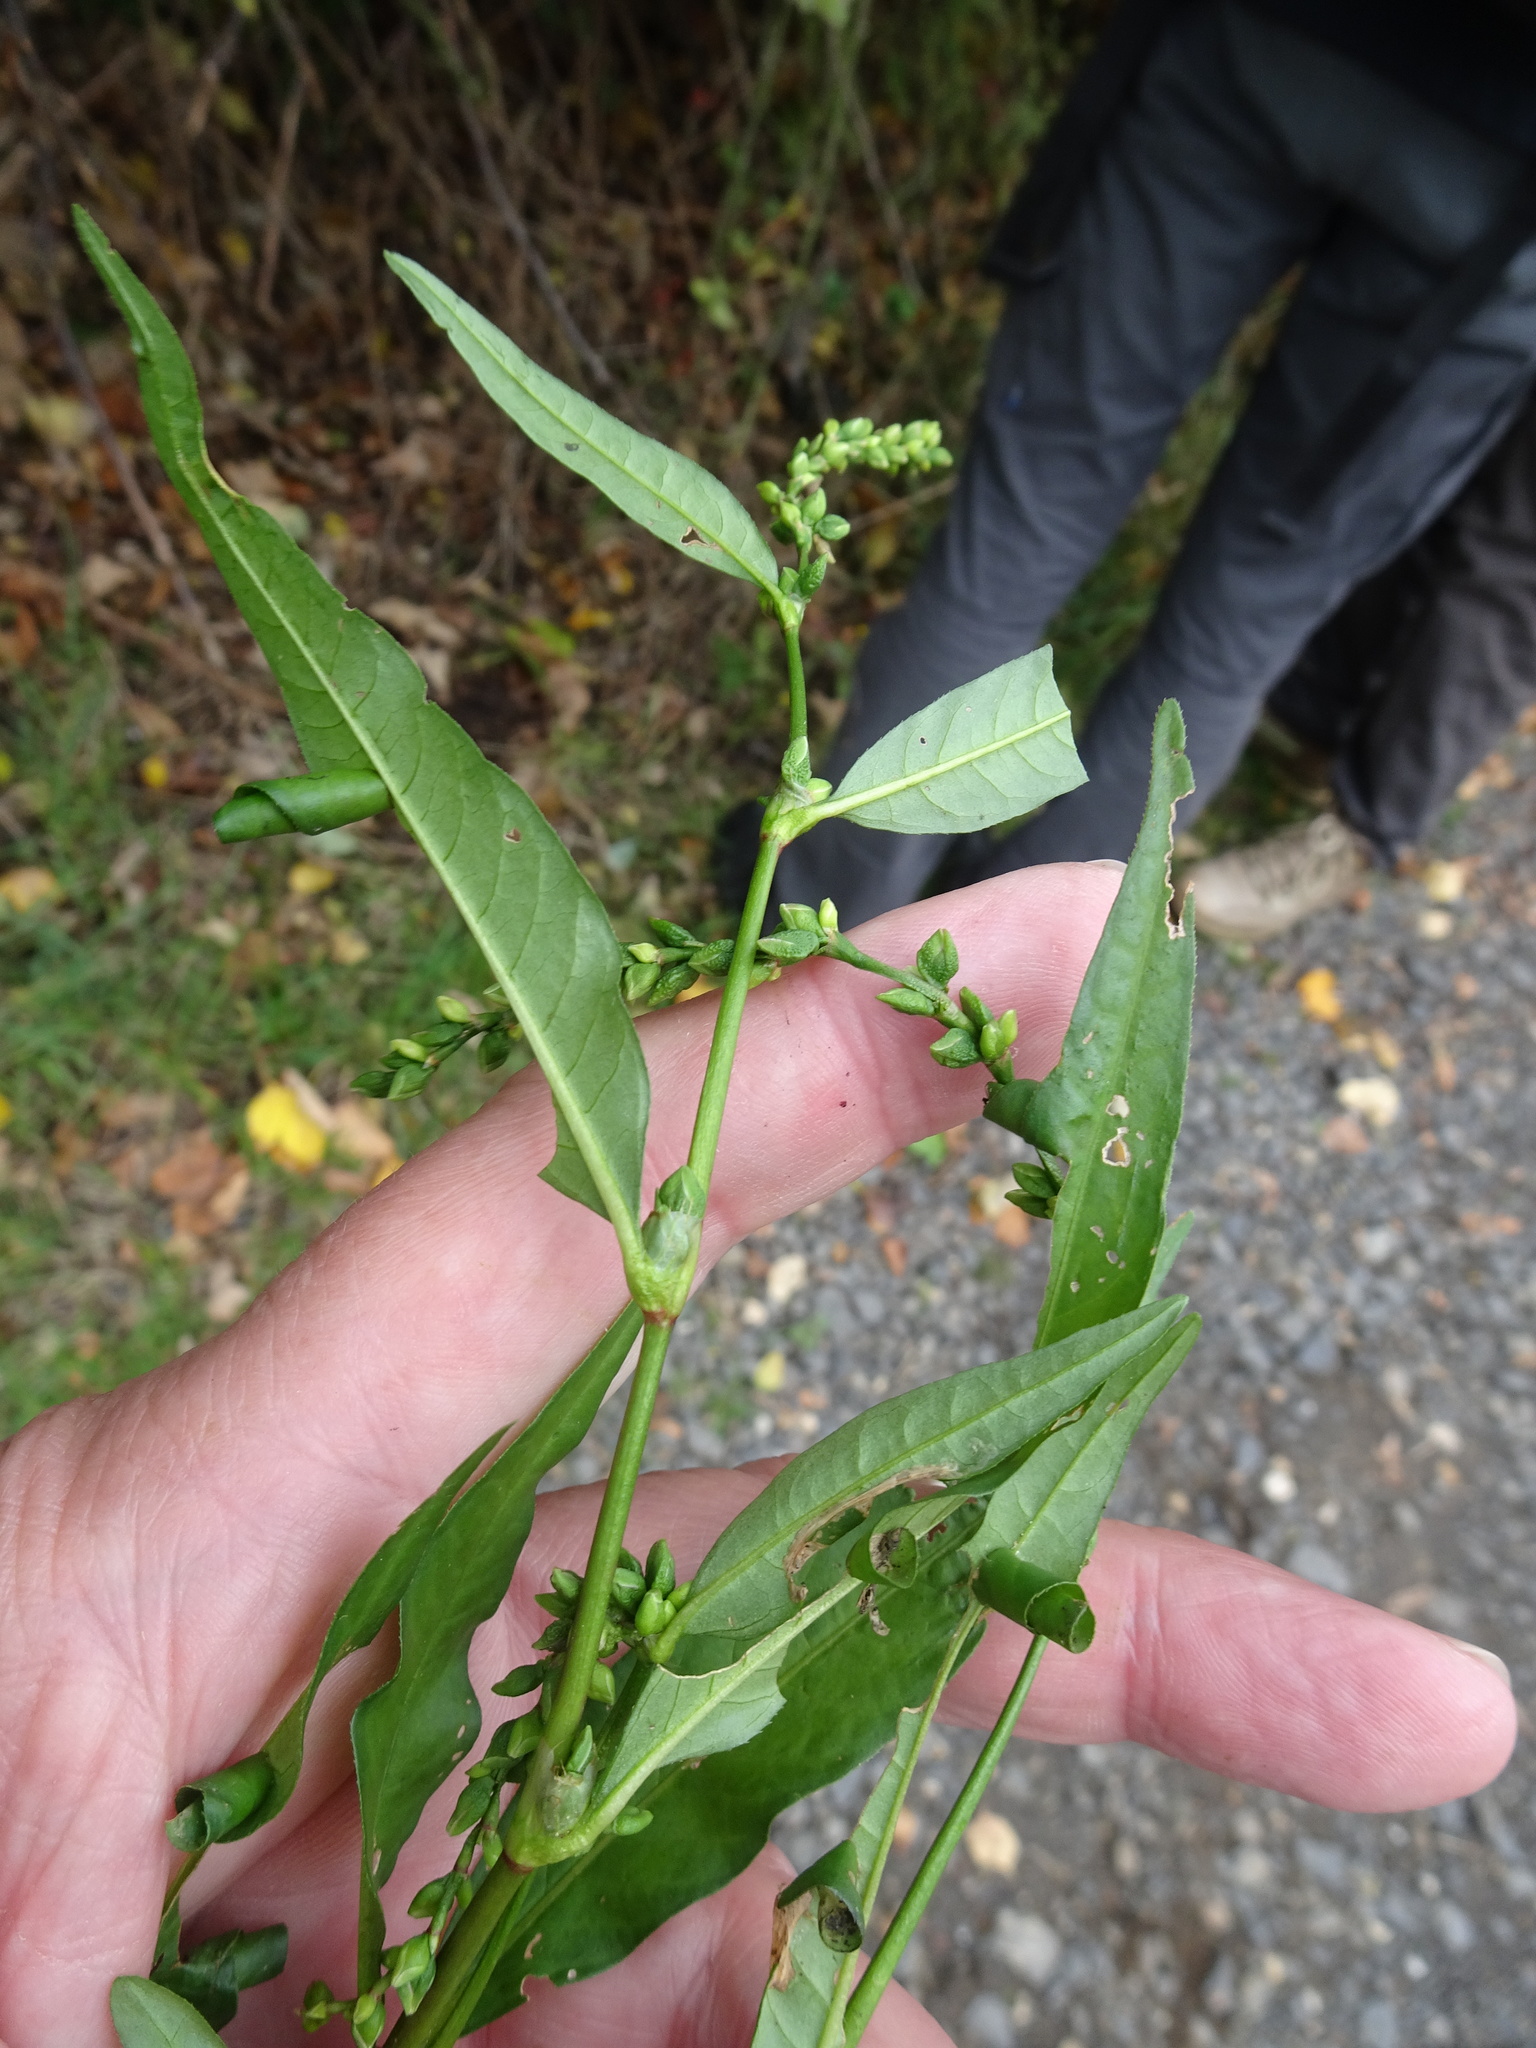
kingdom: Plantae
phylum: Tracheophyta
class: Magnoliopsida
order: Caryophyllales
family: Polygonaceae
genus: Persicaria
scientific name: Persicaria hydropiper
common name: Water-pepper
